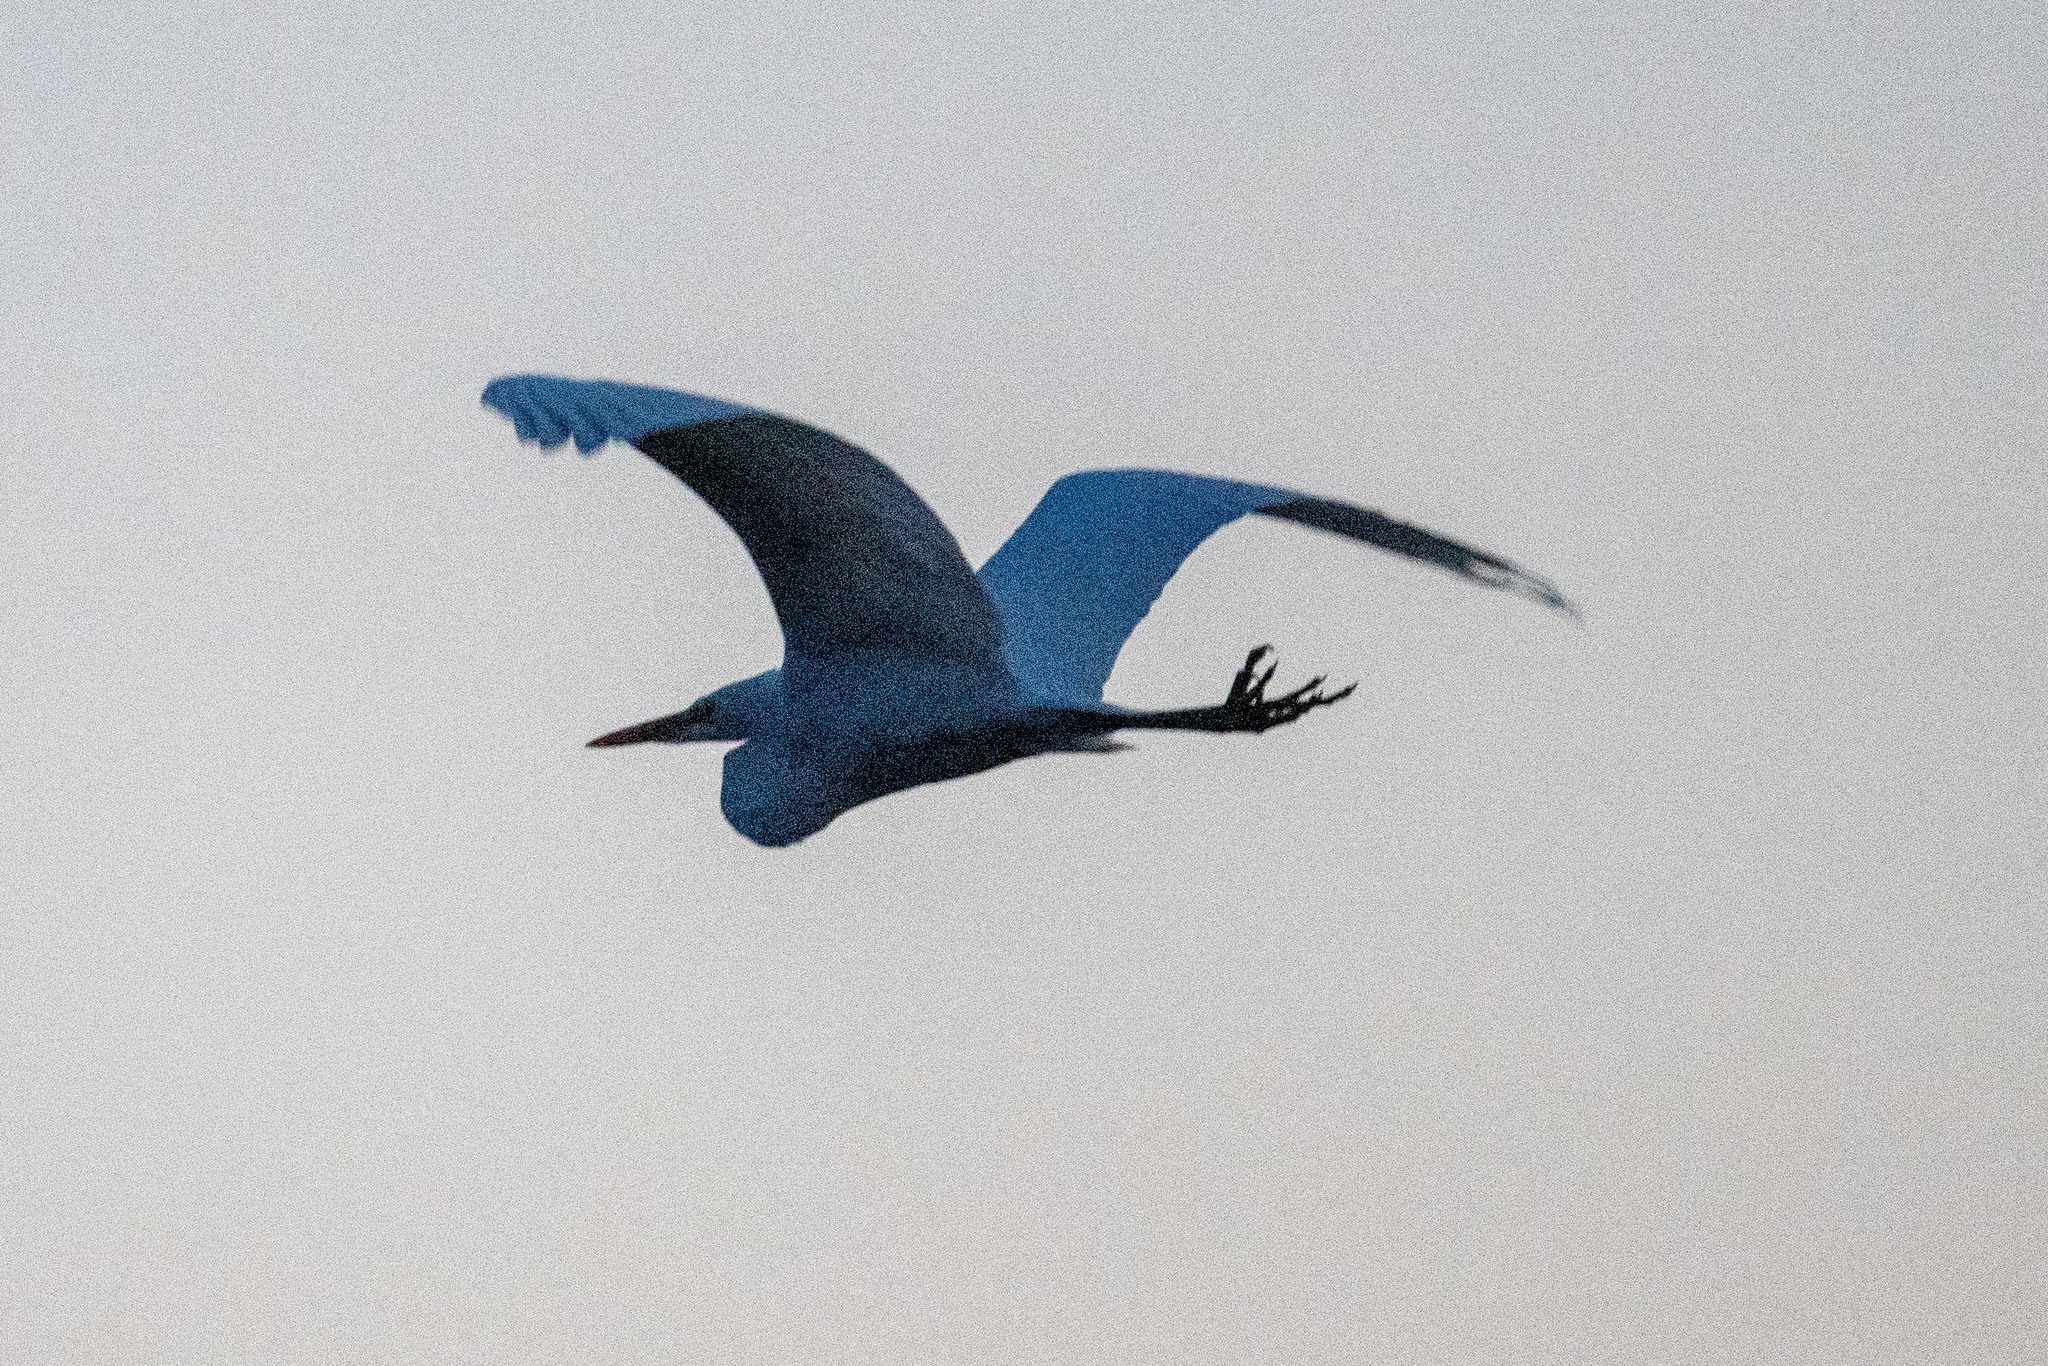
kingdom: Animalia
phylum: Chordata
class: Aves
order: Pelecaniformes
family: Ardeidae
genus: Ardea
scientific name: Ardea alba
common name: Great egret
